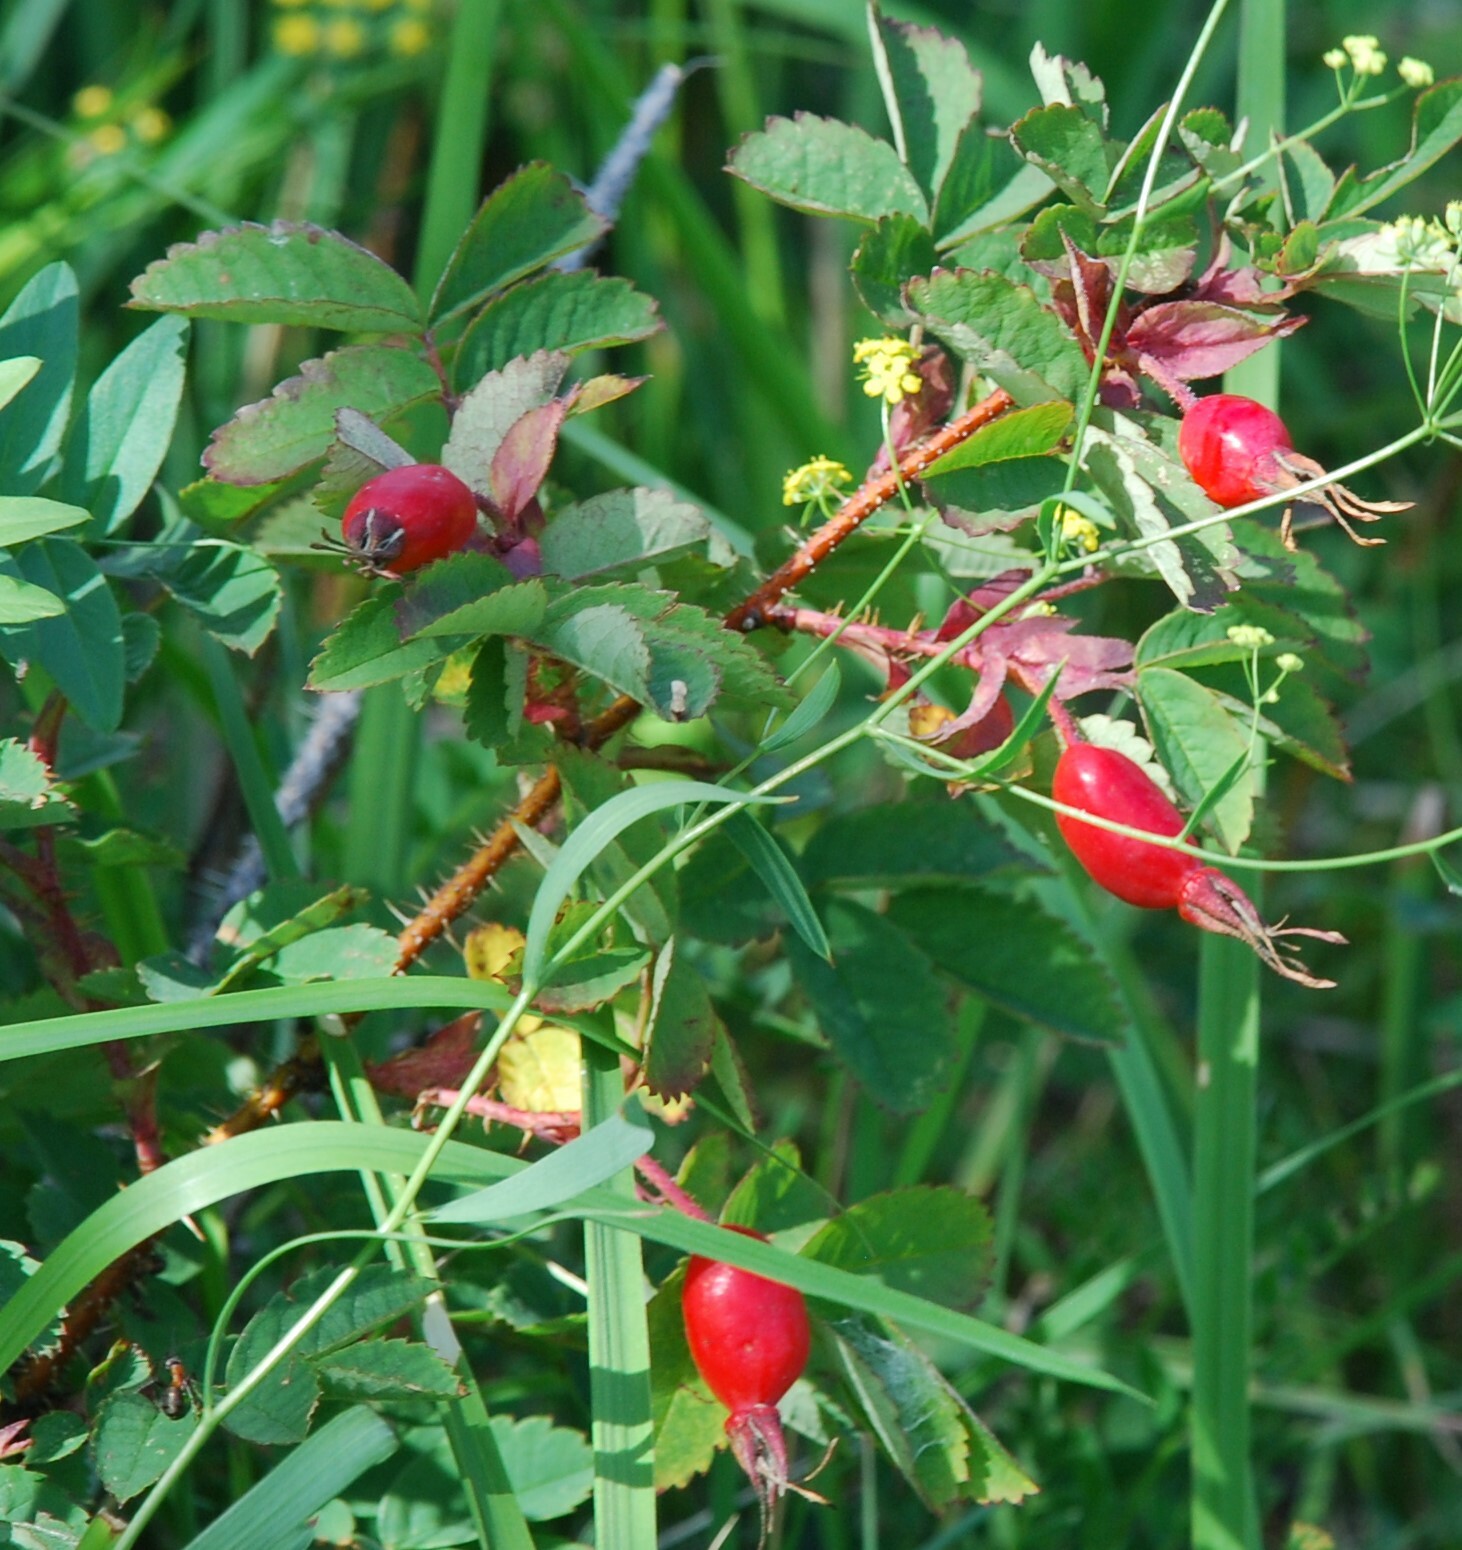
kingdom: Plantae
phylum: Tracheophyta
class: Magnoliopsida
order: Rosales
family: Rosaceae
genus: Rosa
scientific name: Rosa acicularis
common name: Prickly rose
